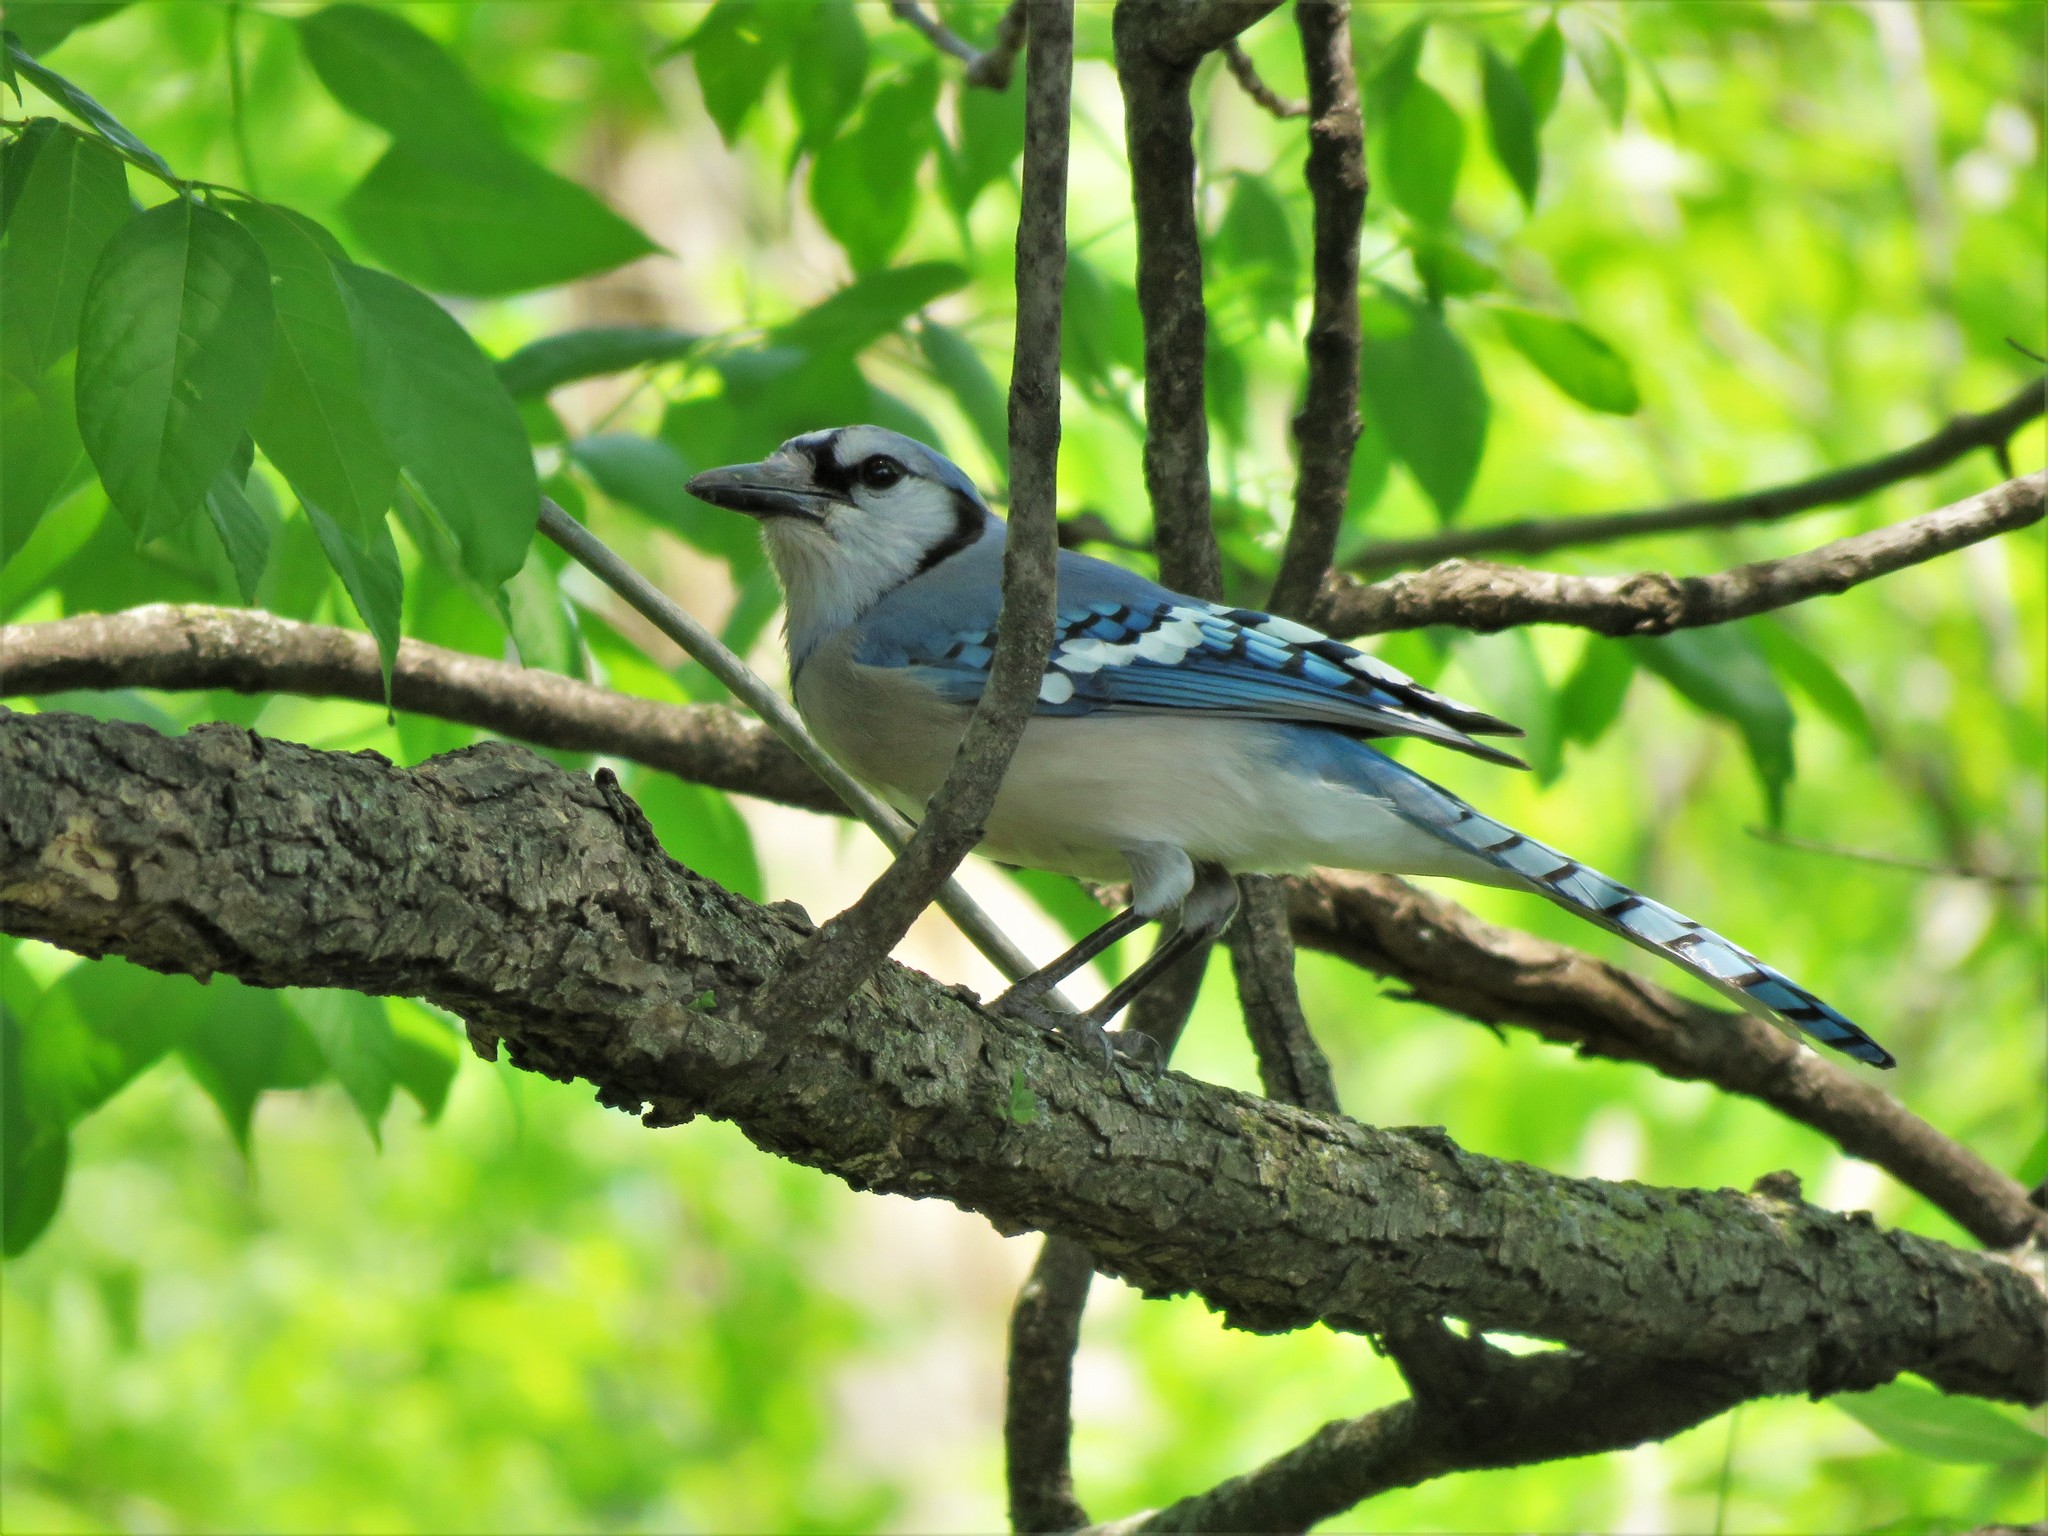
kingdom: Animalia
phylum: Chordata
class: Aves
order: Passeriformes
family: Corvidae
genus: Cyanocitta
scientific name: Cyanocitta cristata
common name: Blue jay
